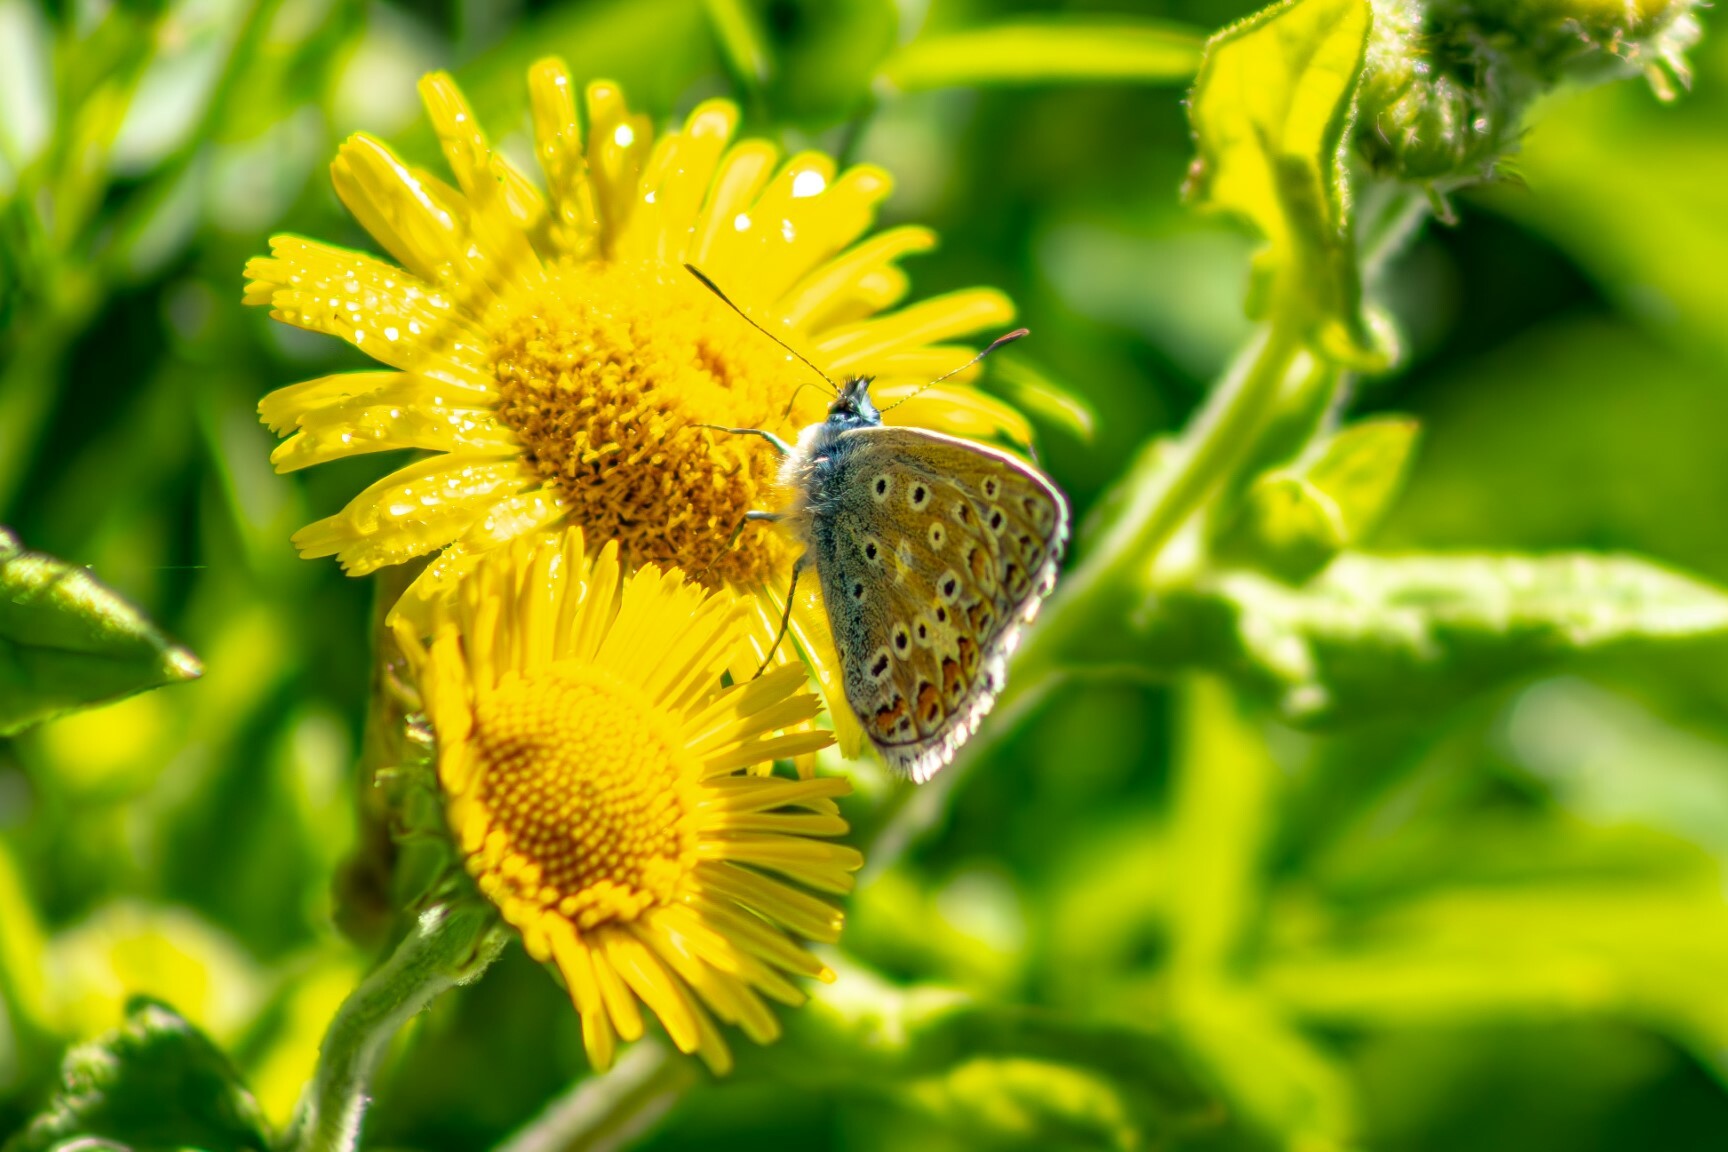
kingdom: Animalia
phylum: Arthropoda
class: Insecta
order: Lepidoptera
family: Lycaenidae
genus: Polyommatus
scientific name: Polyommatus icarus
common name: Common blue
